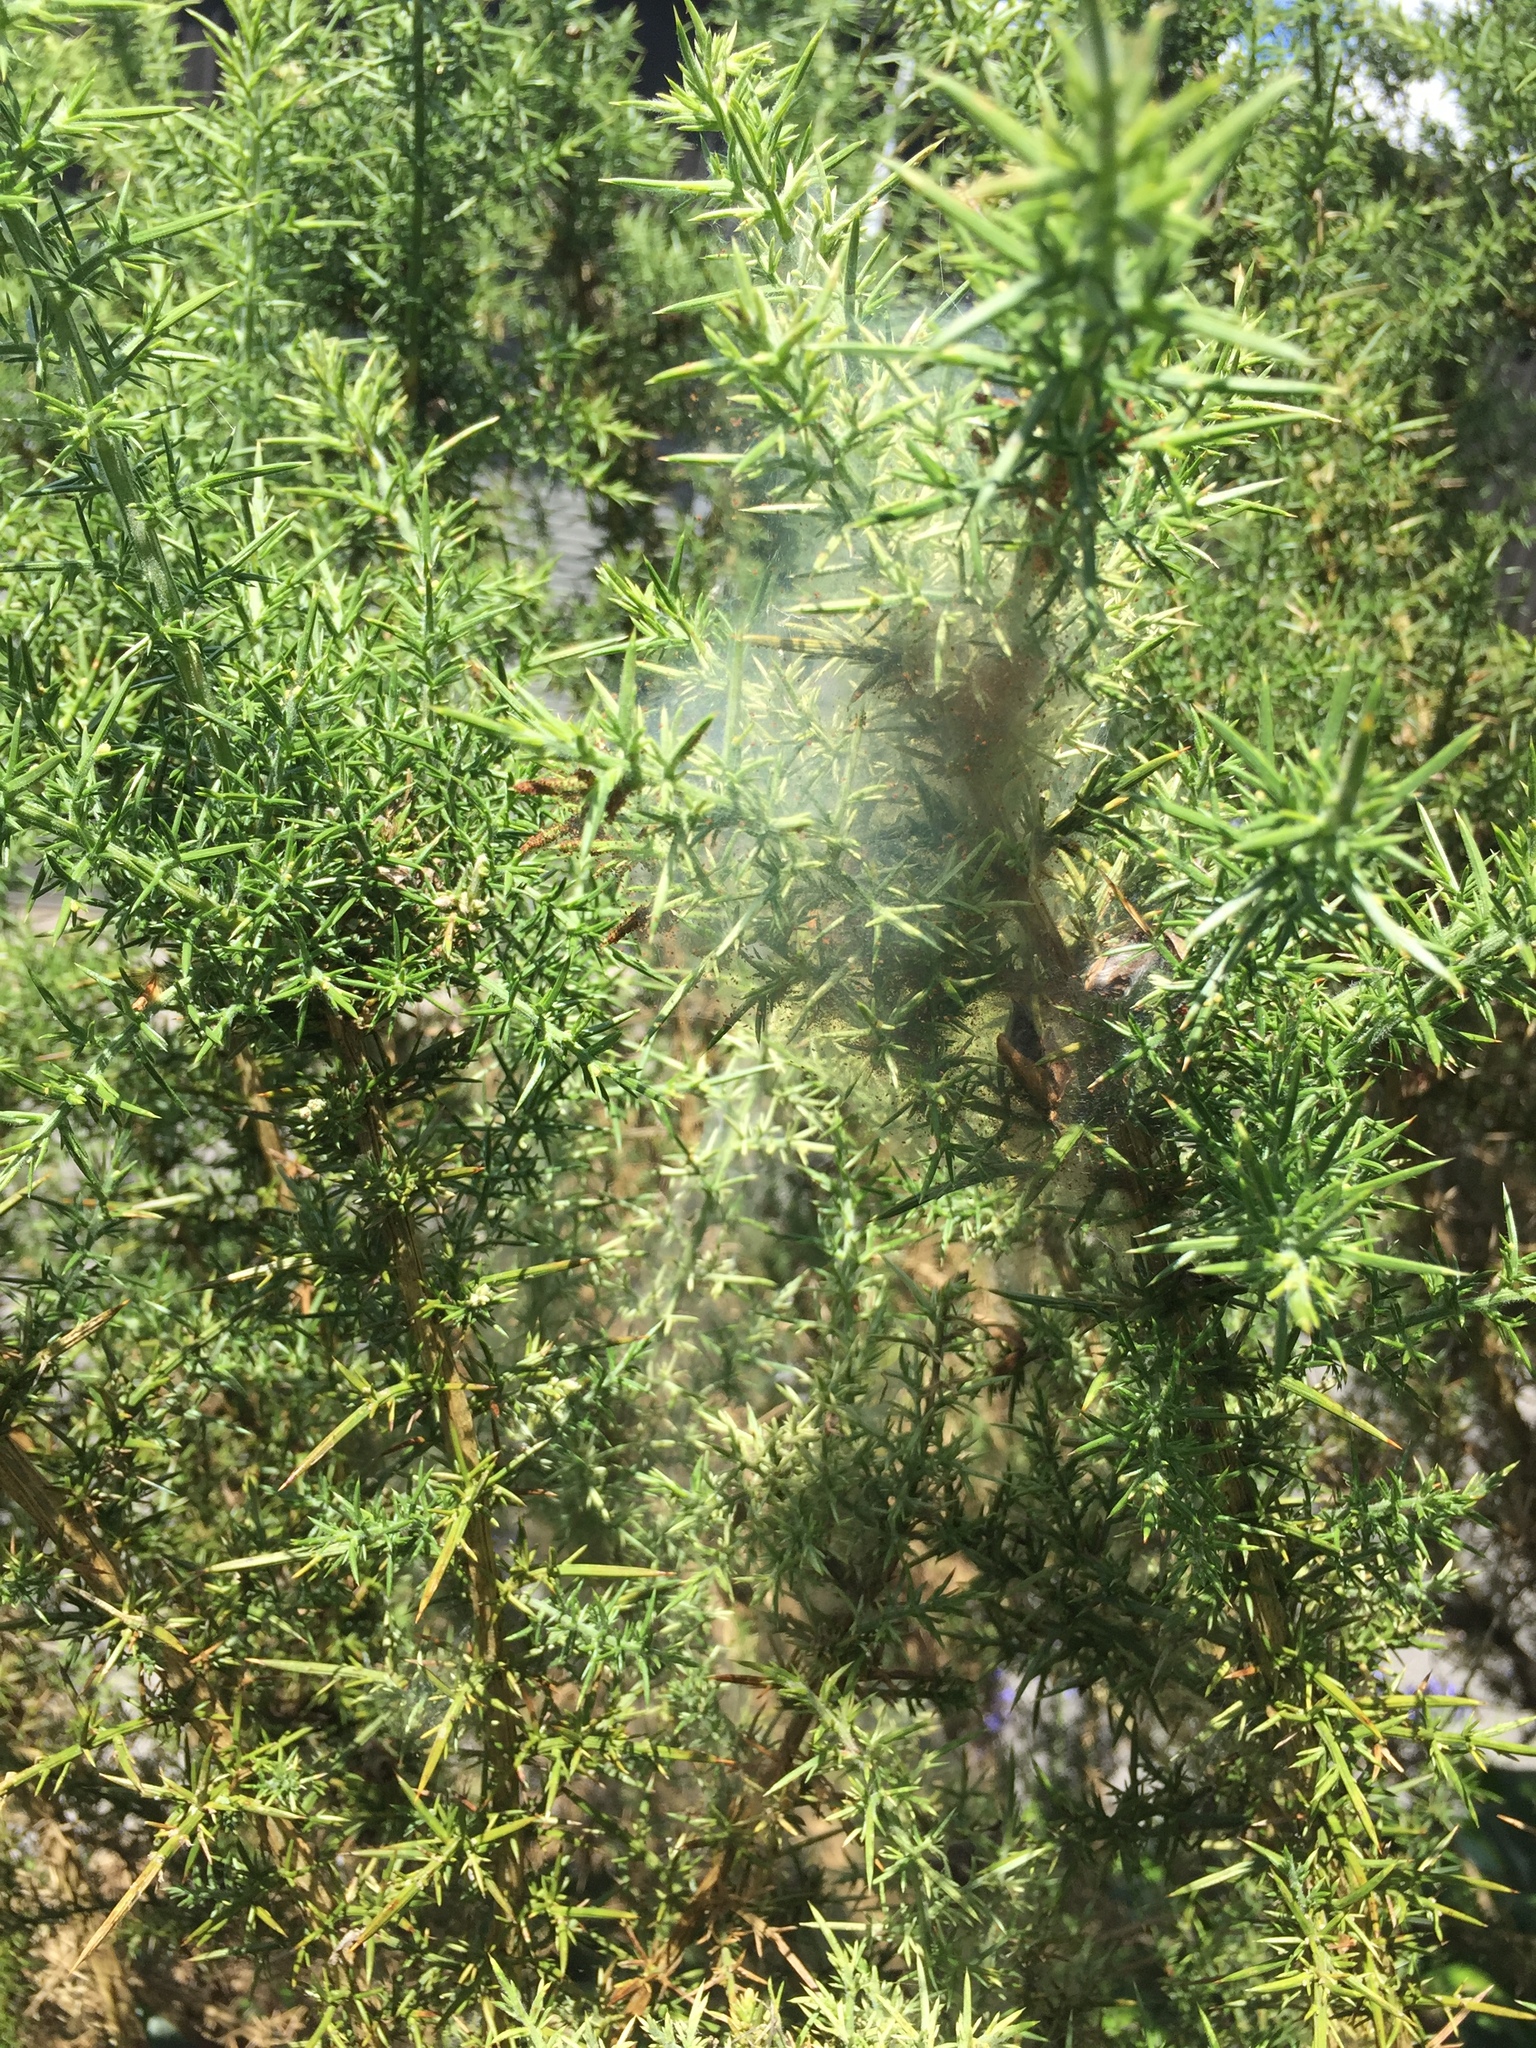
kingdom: Animalia
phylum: Arthropoda
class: Arachnida
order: Trombidiformes
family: Tetranychidae
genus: Tetranychus
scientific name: Tetranychus lintearius
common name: Gorse spider mite
